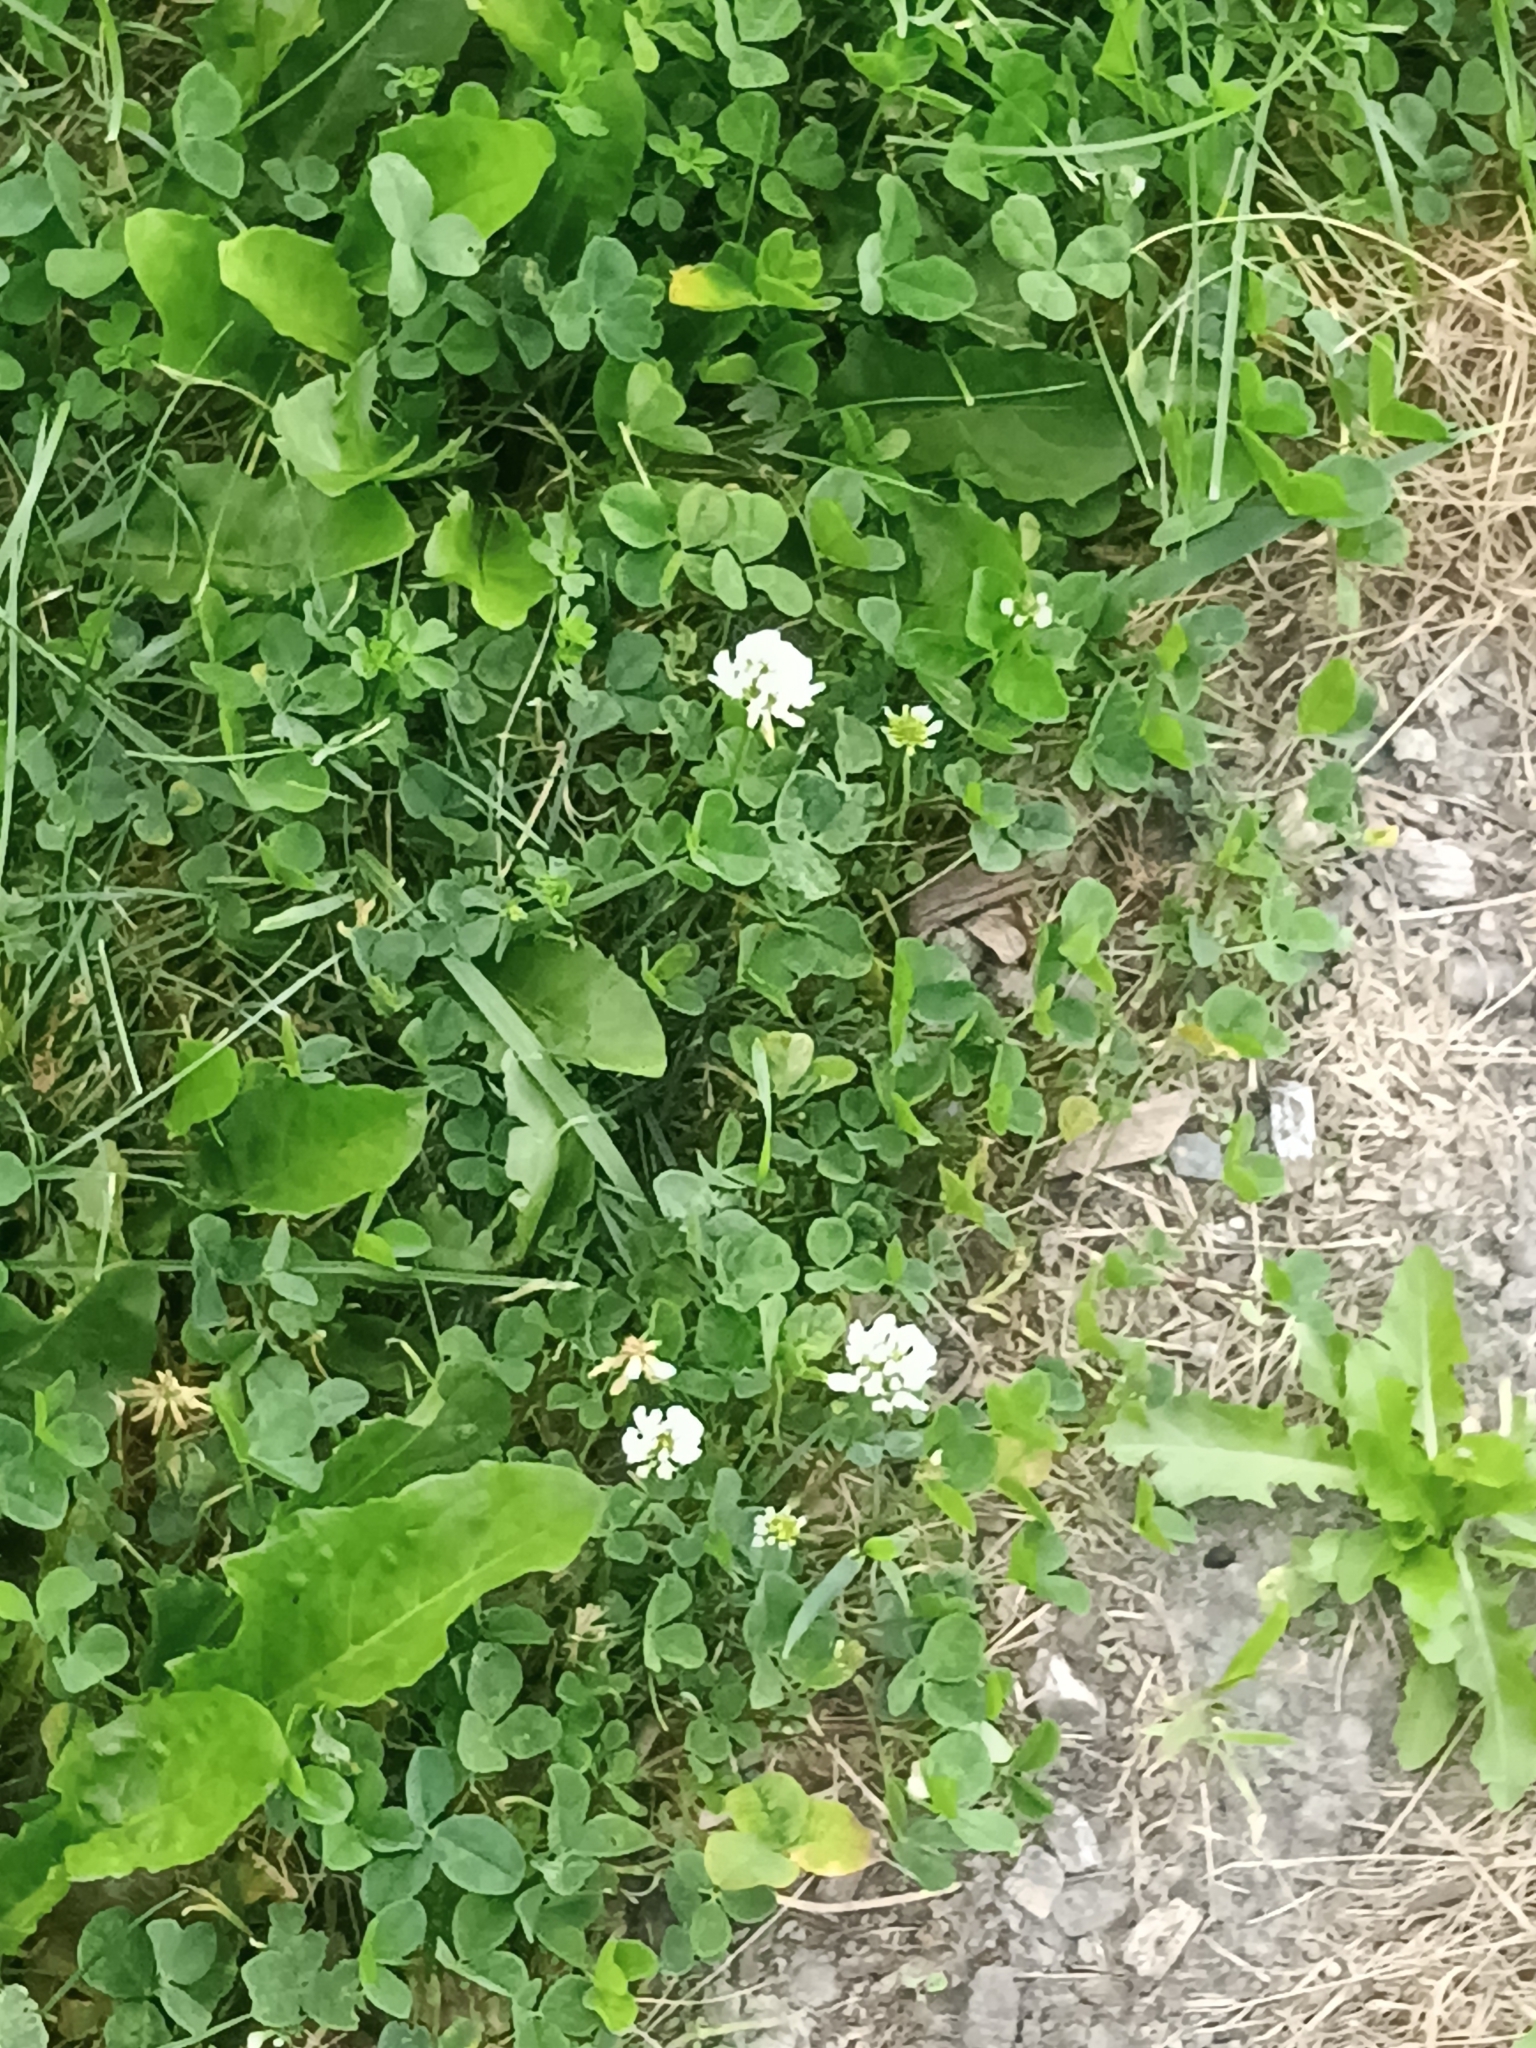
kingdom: Plantae
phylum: Tracheophyta
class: Magnoliopsida
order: Fabales
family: Fabaceae
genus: Trifolium
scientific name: Trifolium repens
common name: White clover
